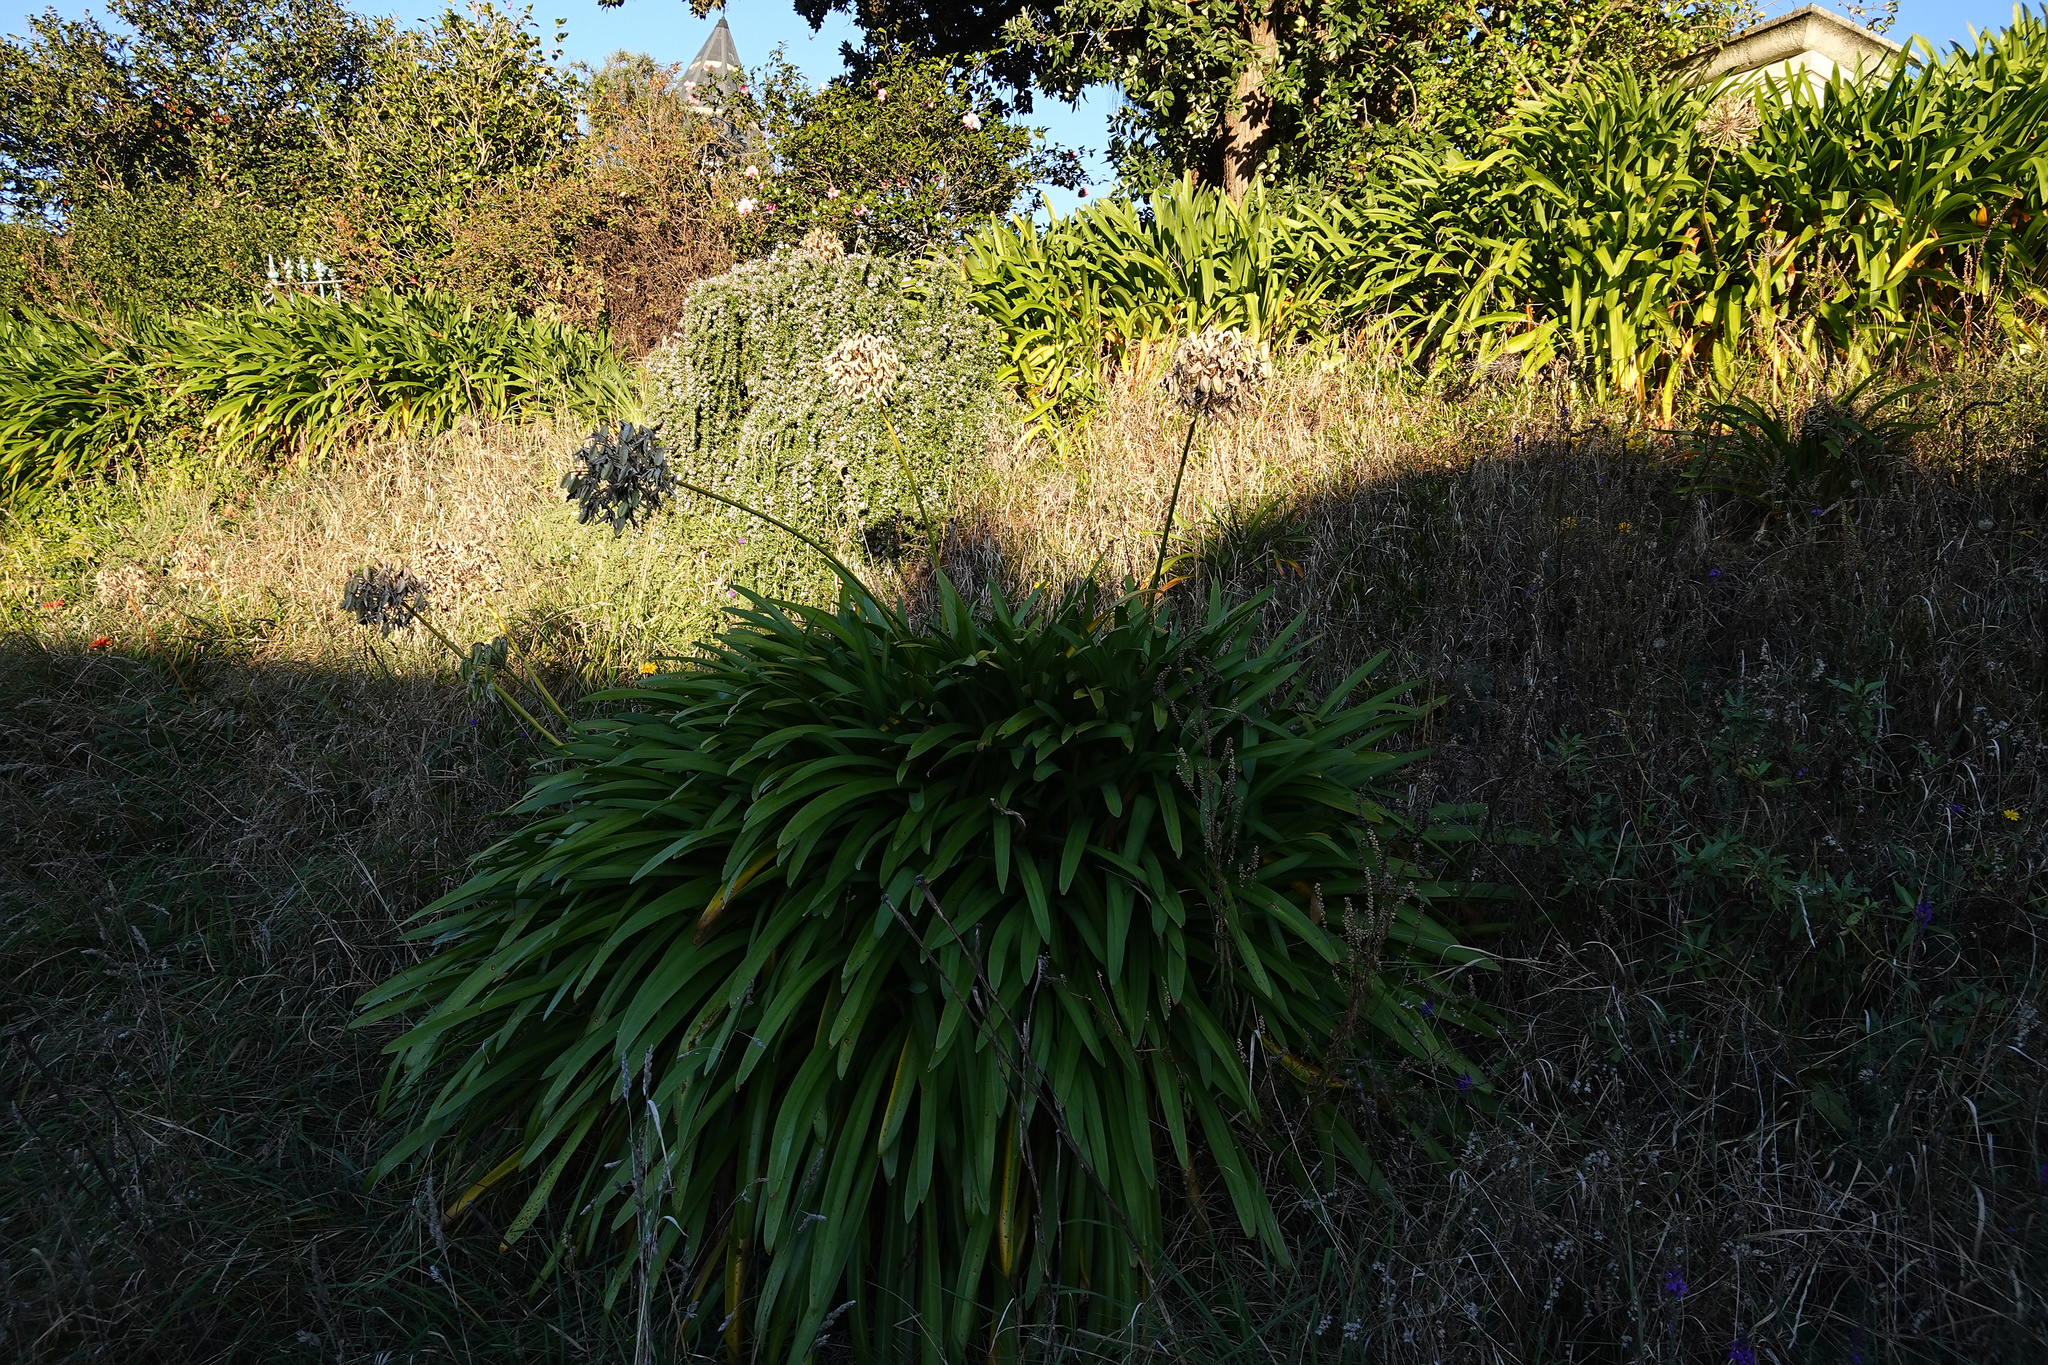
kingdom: Plantae
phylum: Tracheophyta
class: Liliopsida
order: Asparagales
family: Amaryllidaceae
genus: Agapanthus
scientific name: Agapanthus praecox
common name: African-lily
